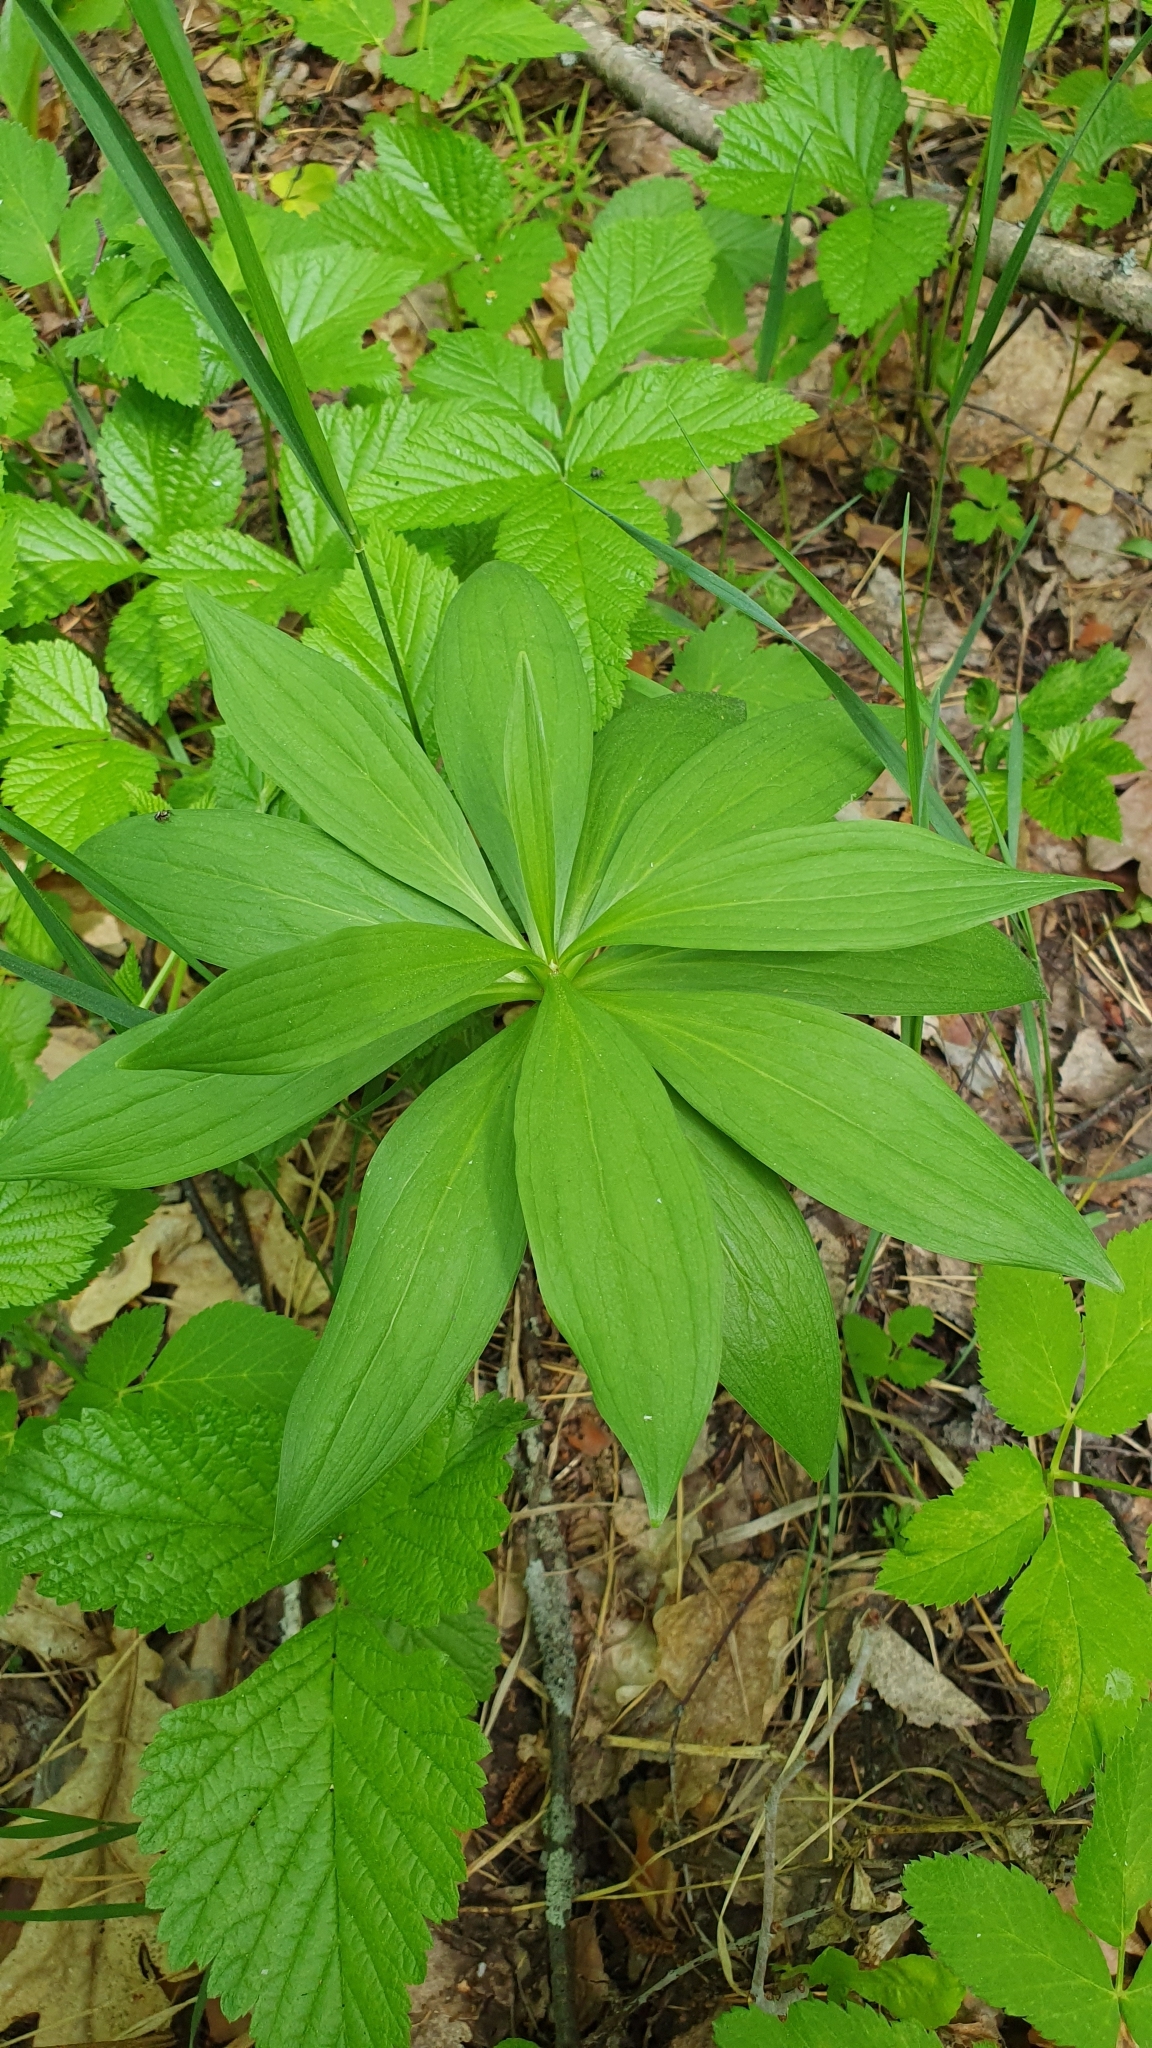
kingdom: Plantae
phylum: Tracheophyta
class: Liliopsida
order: Liliales
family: Liliaceae
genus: Lilium
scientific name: Lilium martagon
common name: Martagon lily
